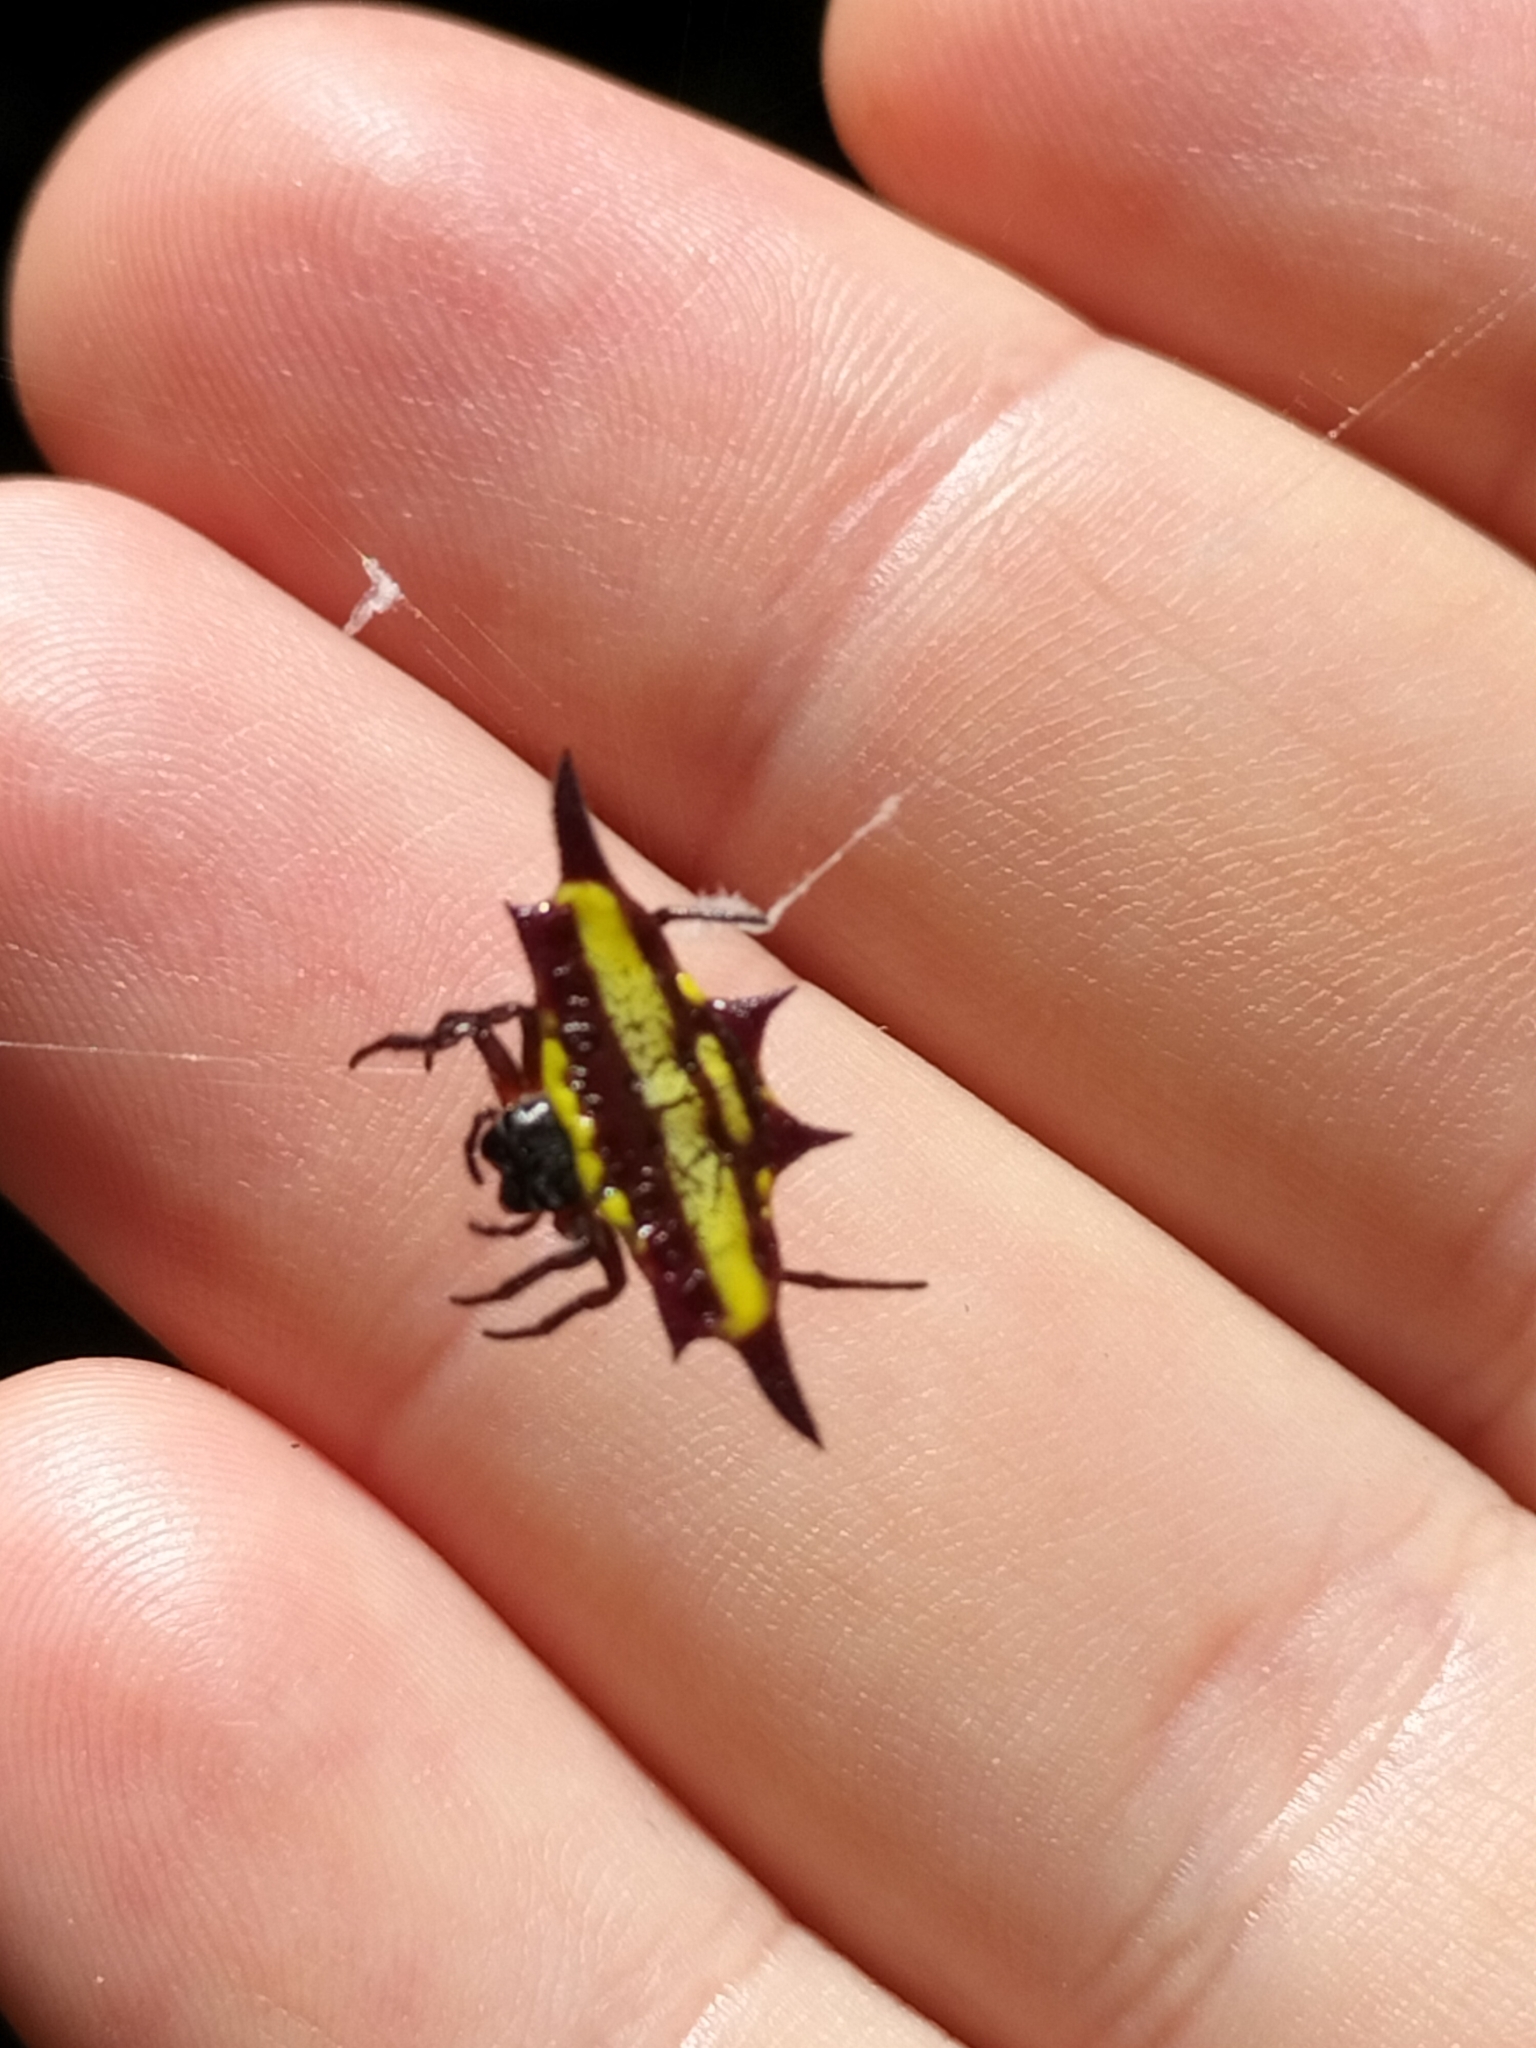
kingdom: Animalia
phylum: Arthropoda
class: Arachnida
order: Araneae
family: Araneidae
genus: Gasteracantha
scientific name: Gasteracantha fornicata
